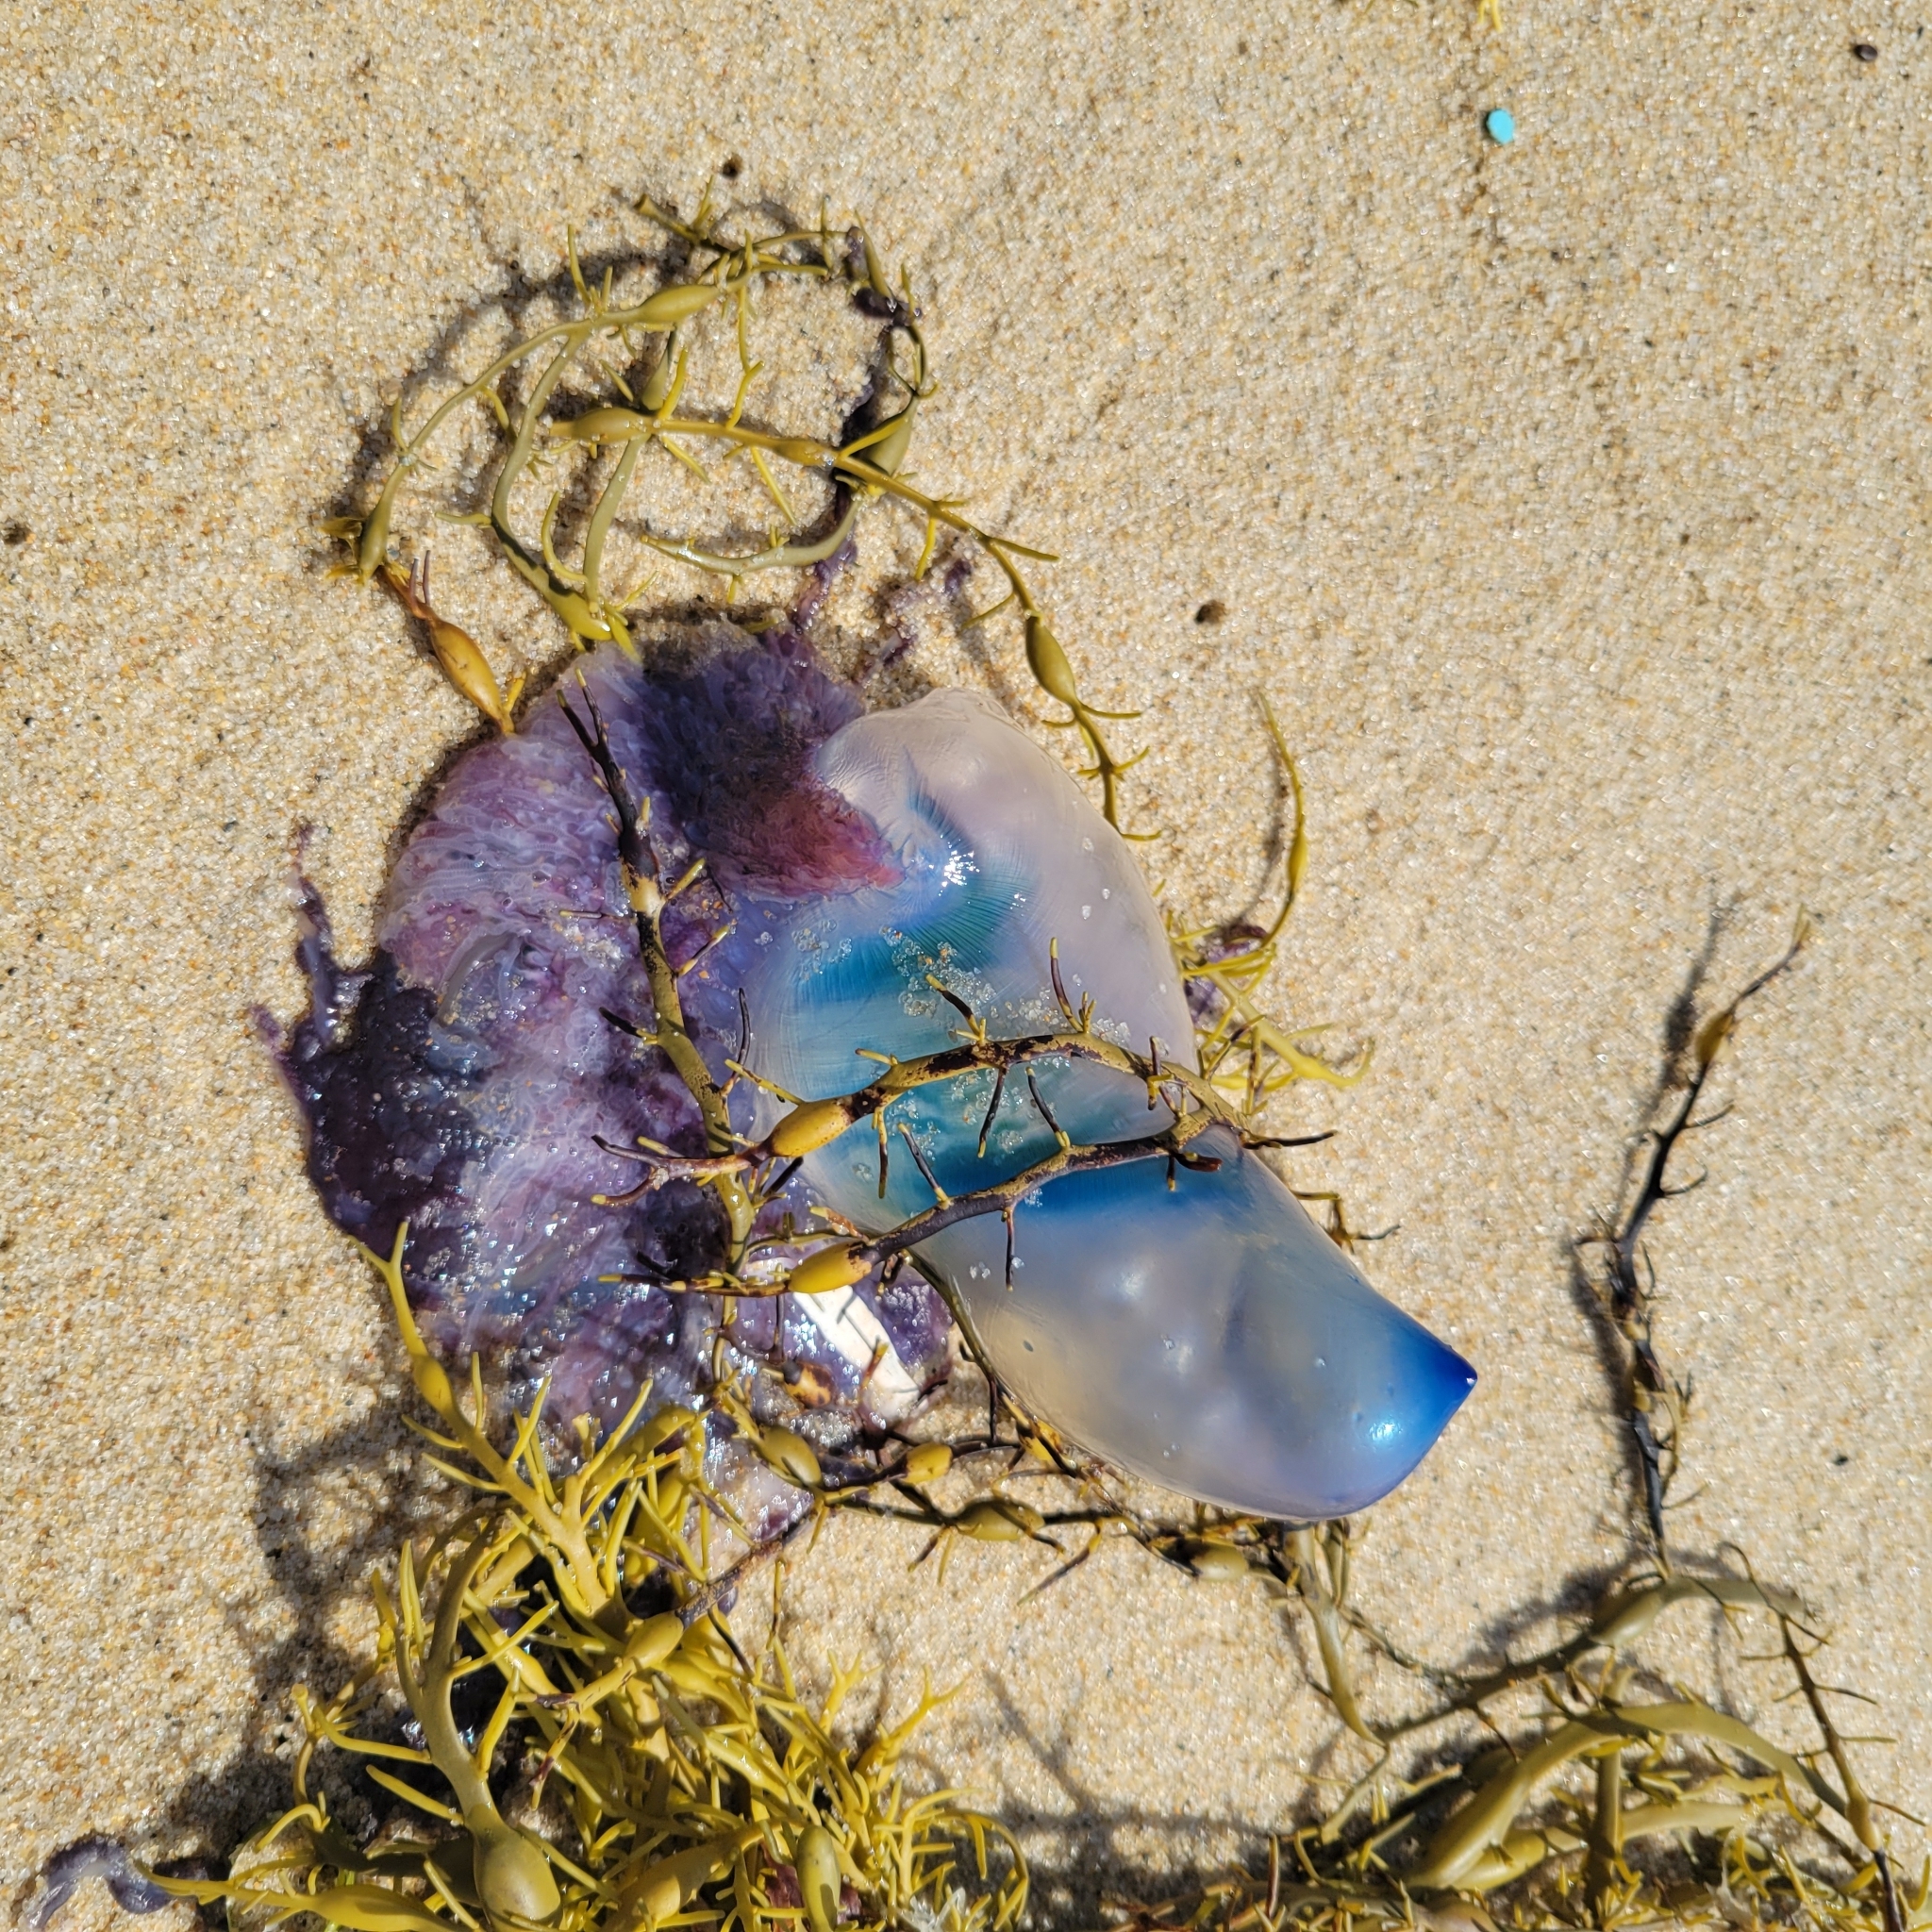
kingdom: Animalia
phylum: Cnidaria
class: Hydrozoa
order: Siphonophorae
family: Physaliidae
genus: Physalia
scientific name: Physalia physalis
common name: Portuguese man-of-war
